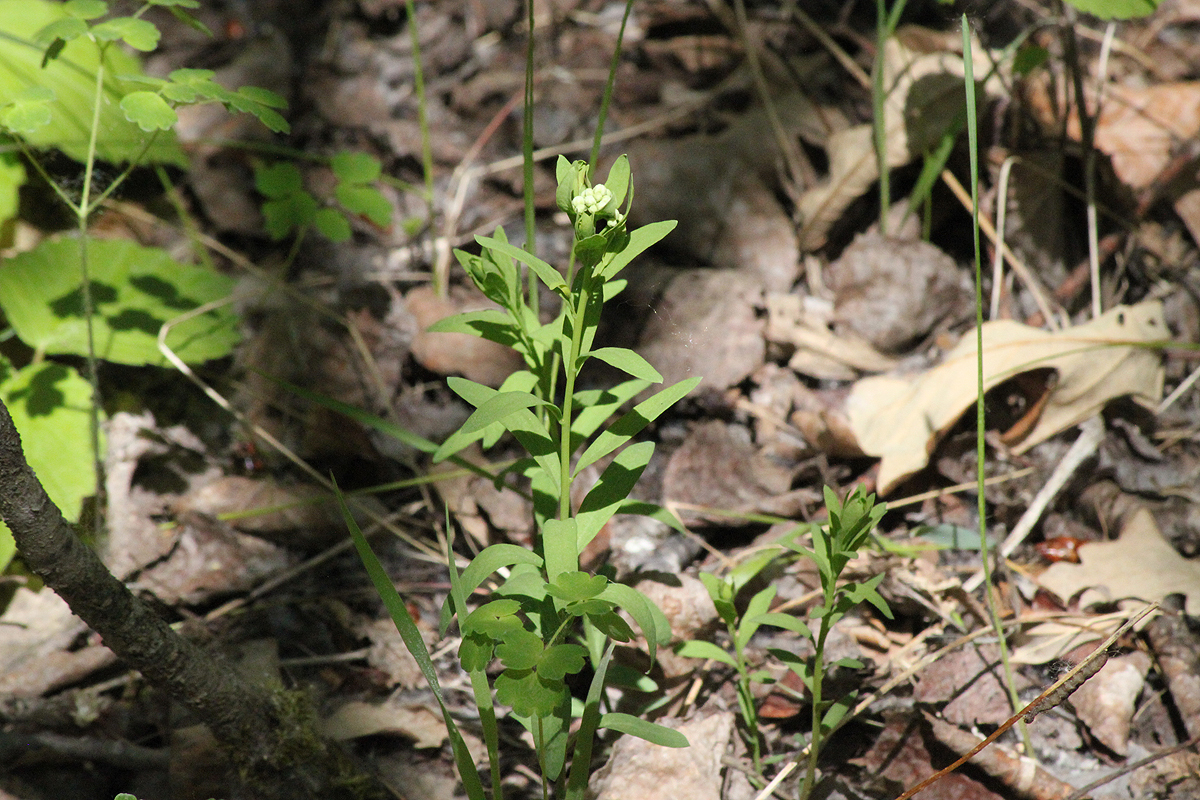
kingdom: Plantae
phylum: Tracheophyta
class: Magnoliopsida
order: Santalales
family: Comandraceae
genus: Comandra
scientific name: Comandra umbellata
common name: Bastard toadflax
